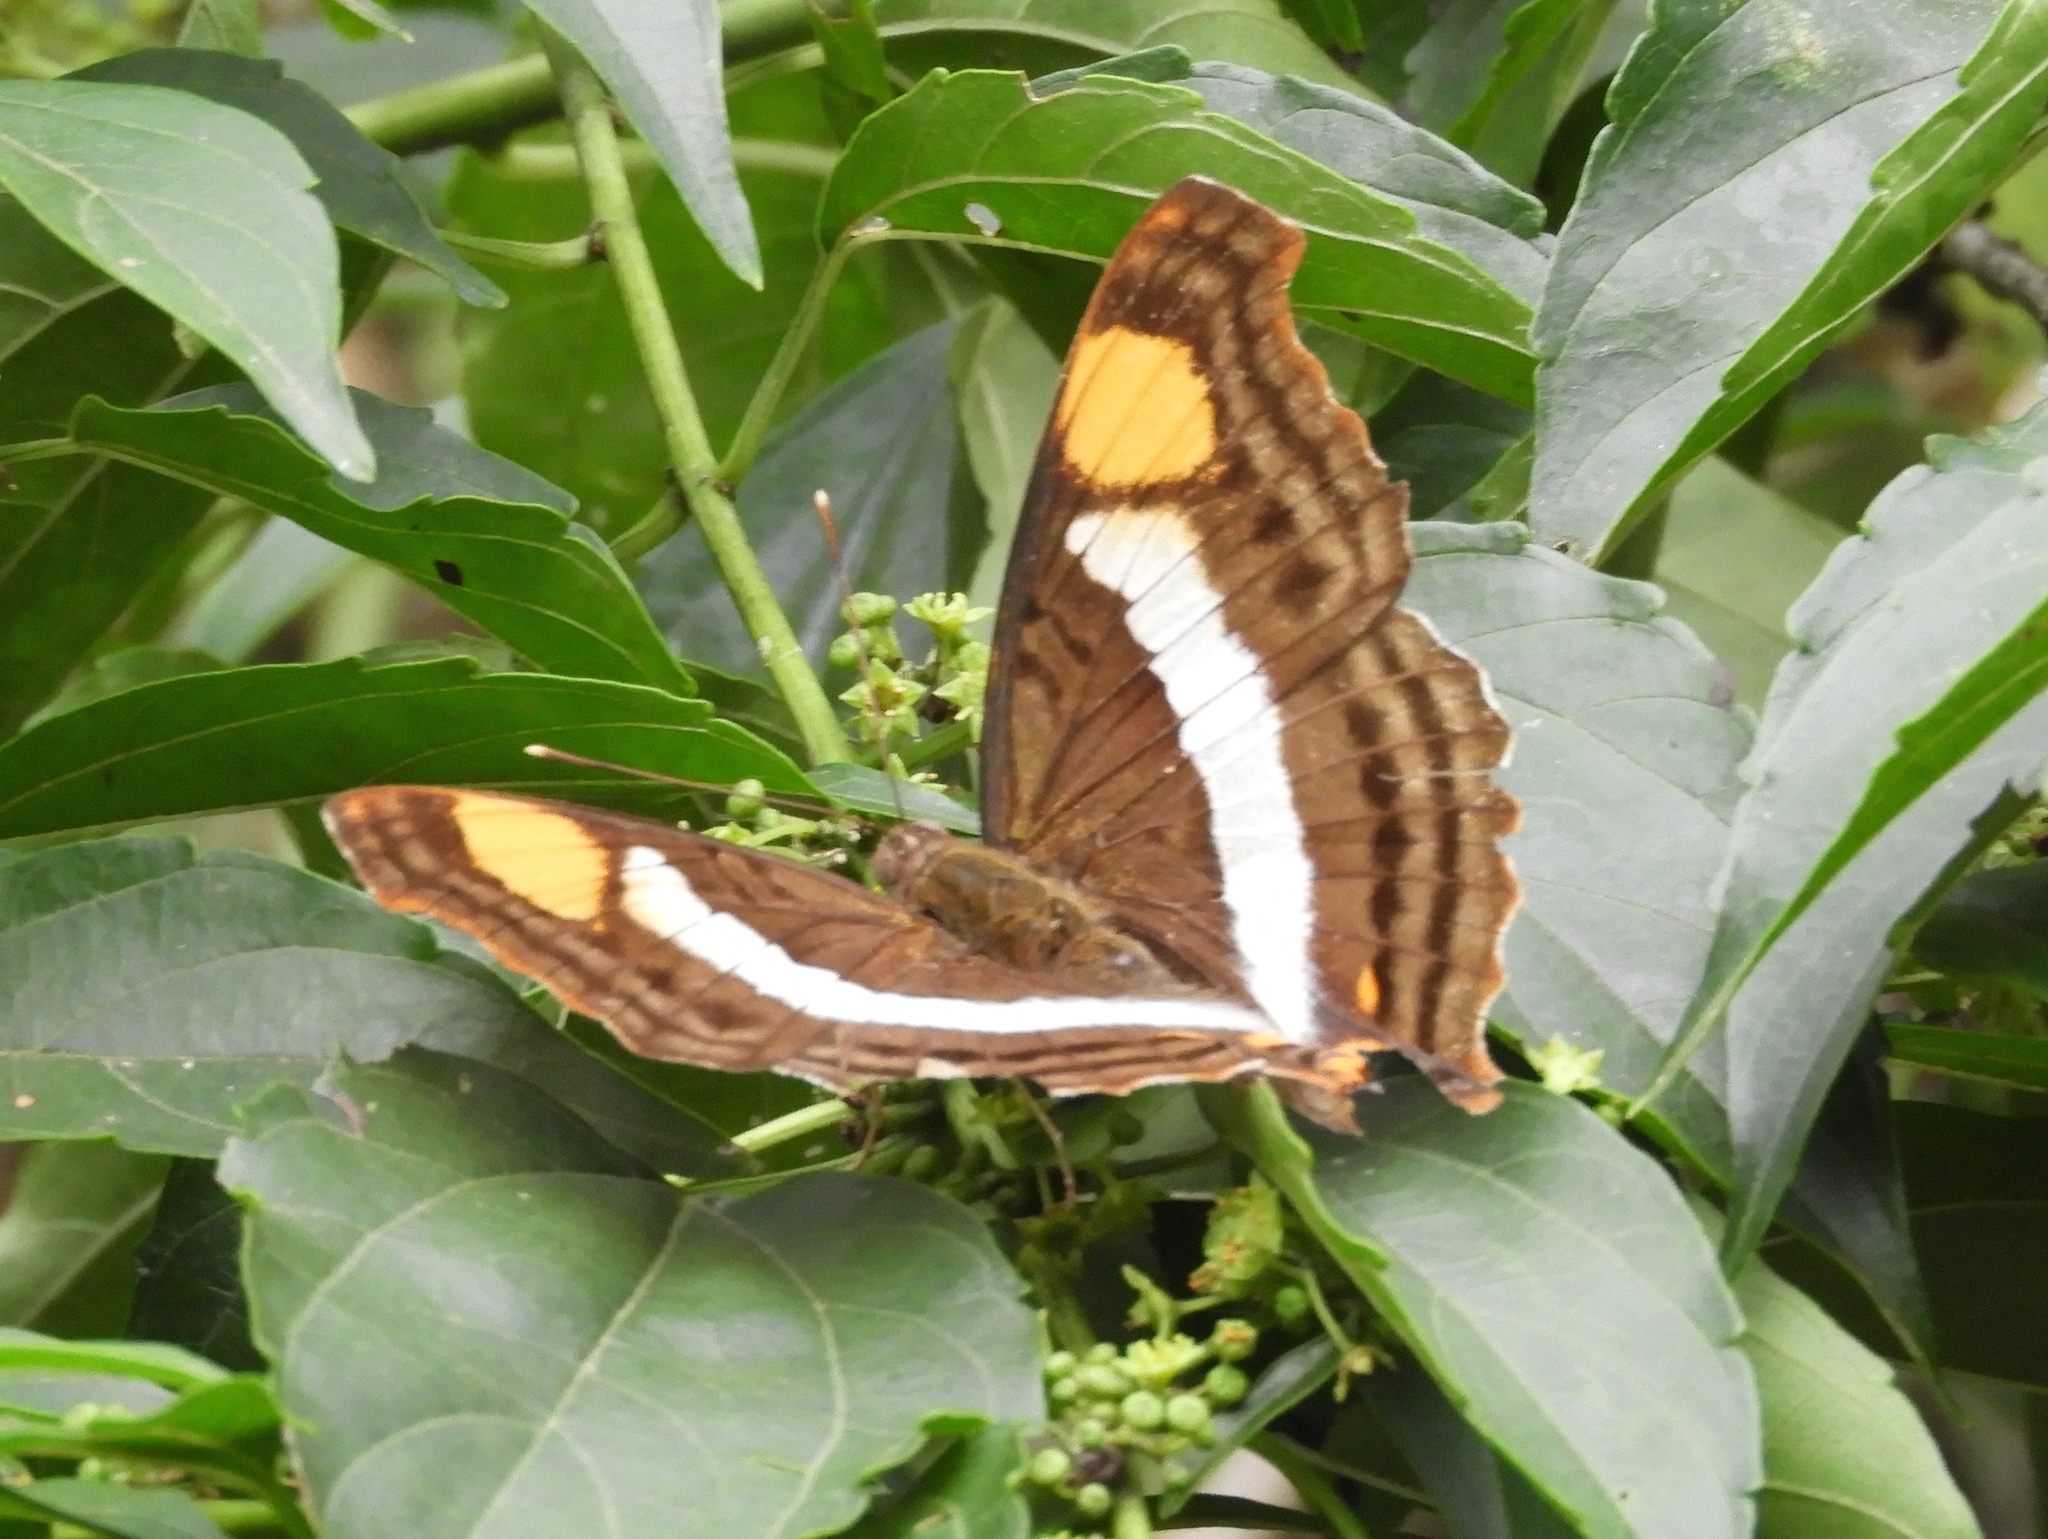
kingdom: Animalia
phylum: Arthropoda
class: Insecta
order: Lepidoptera
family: Nymphalidae
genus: Doxocopa
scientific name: Doxocopa laure
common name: Silver emperor
